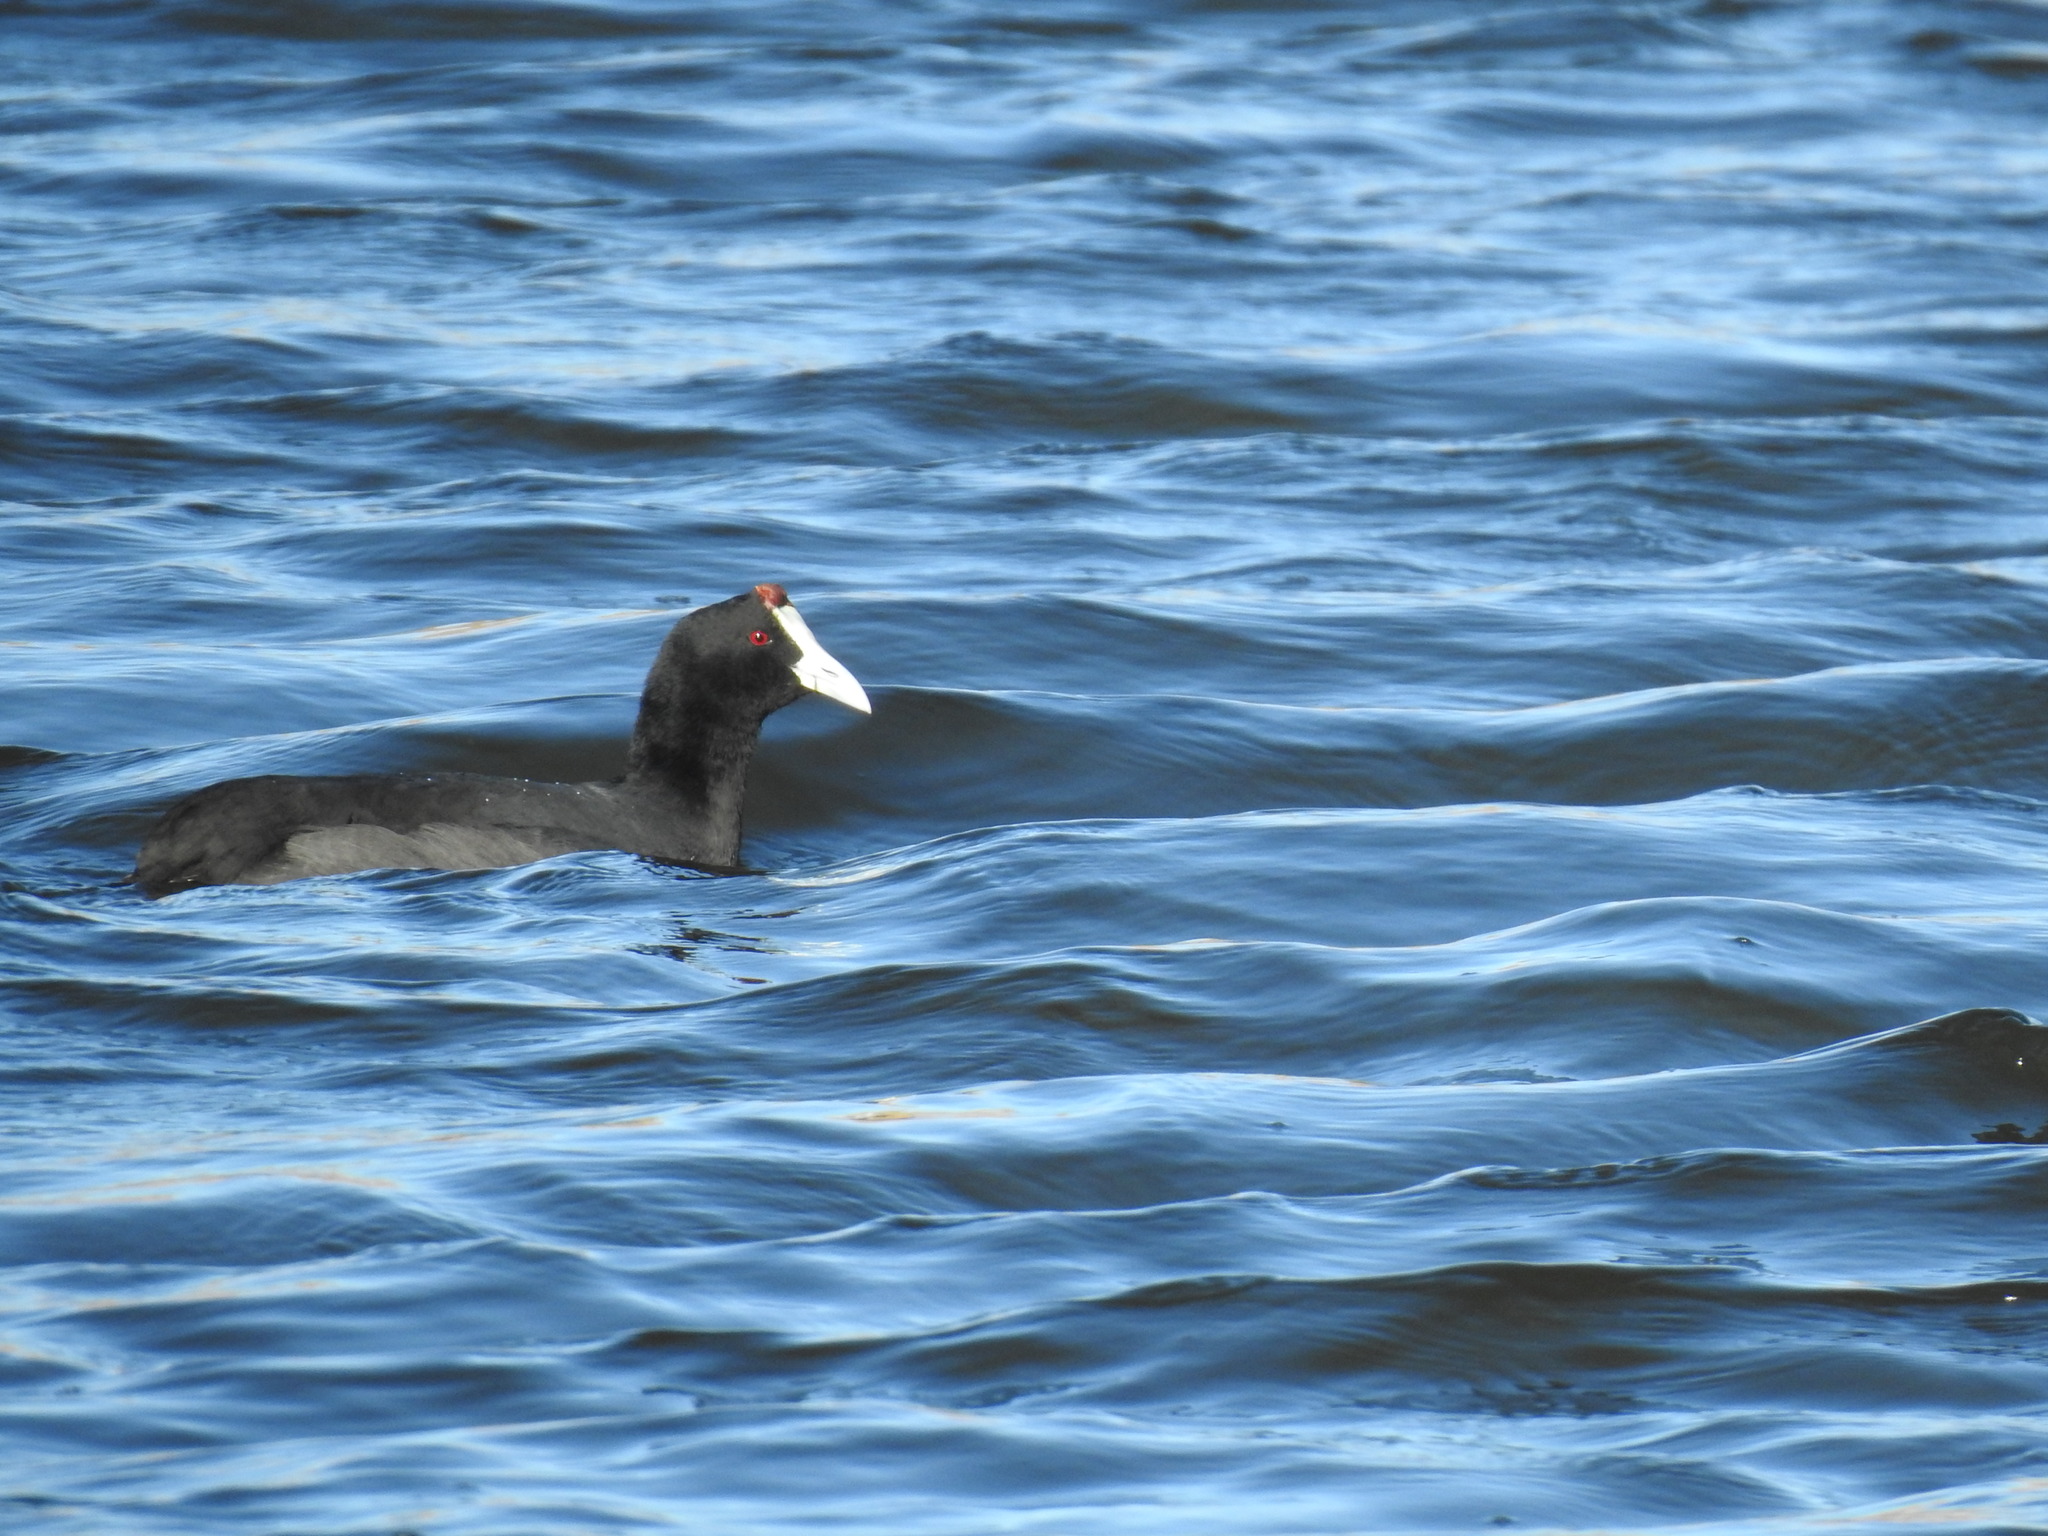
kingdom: Animalia
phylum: Chordata
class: Aves
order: Gruiformes
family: Rallidae
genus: Fulica
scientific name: Fulica cristata
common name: Red-knobbed coot
